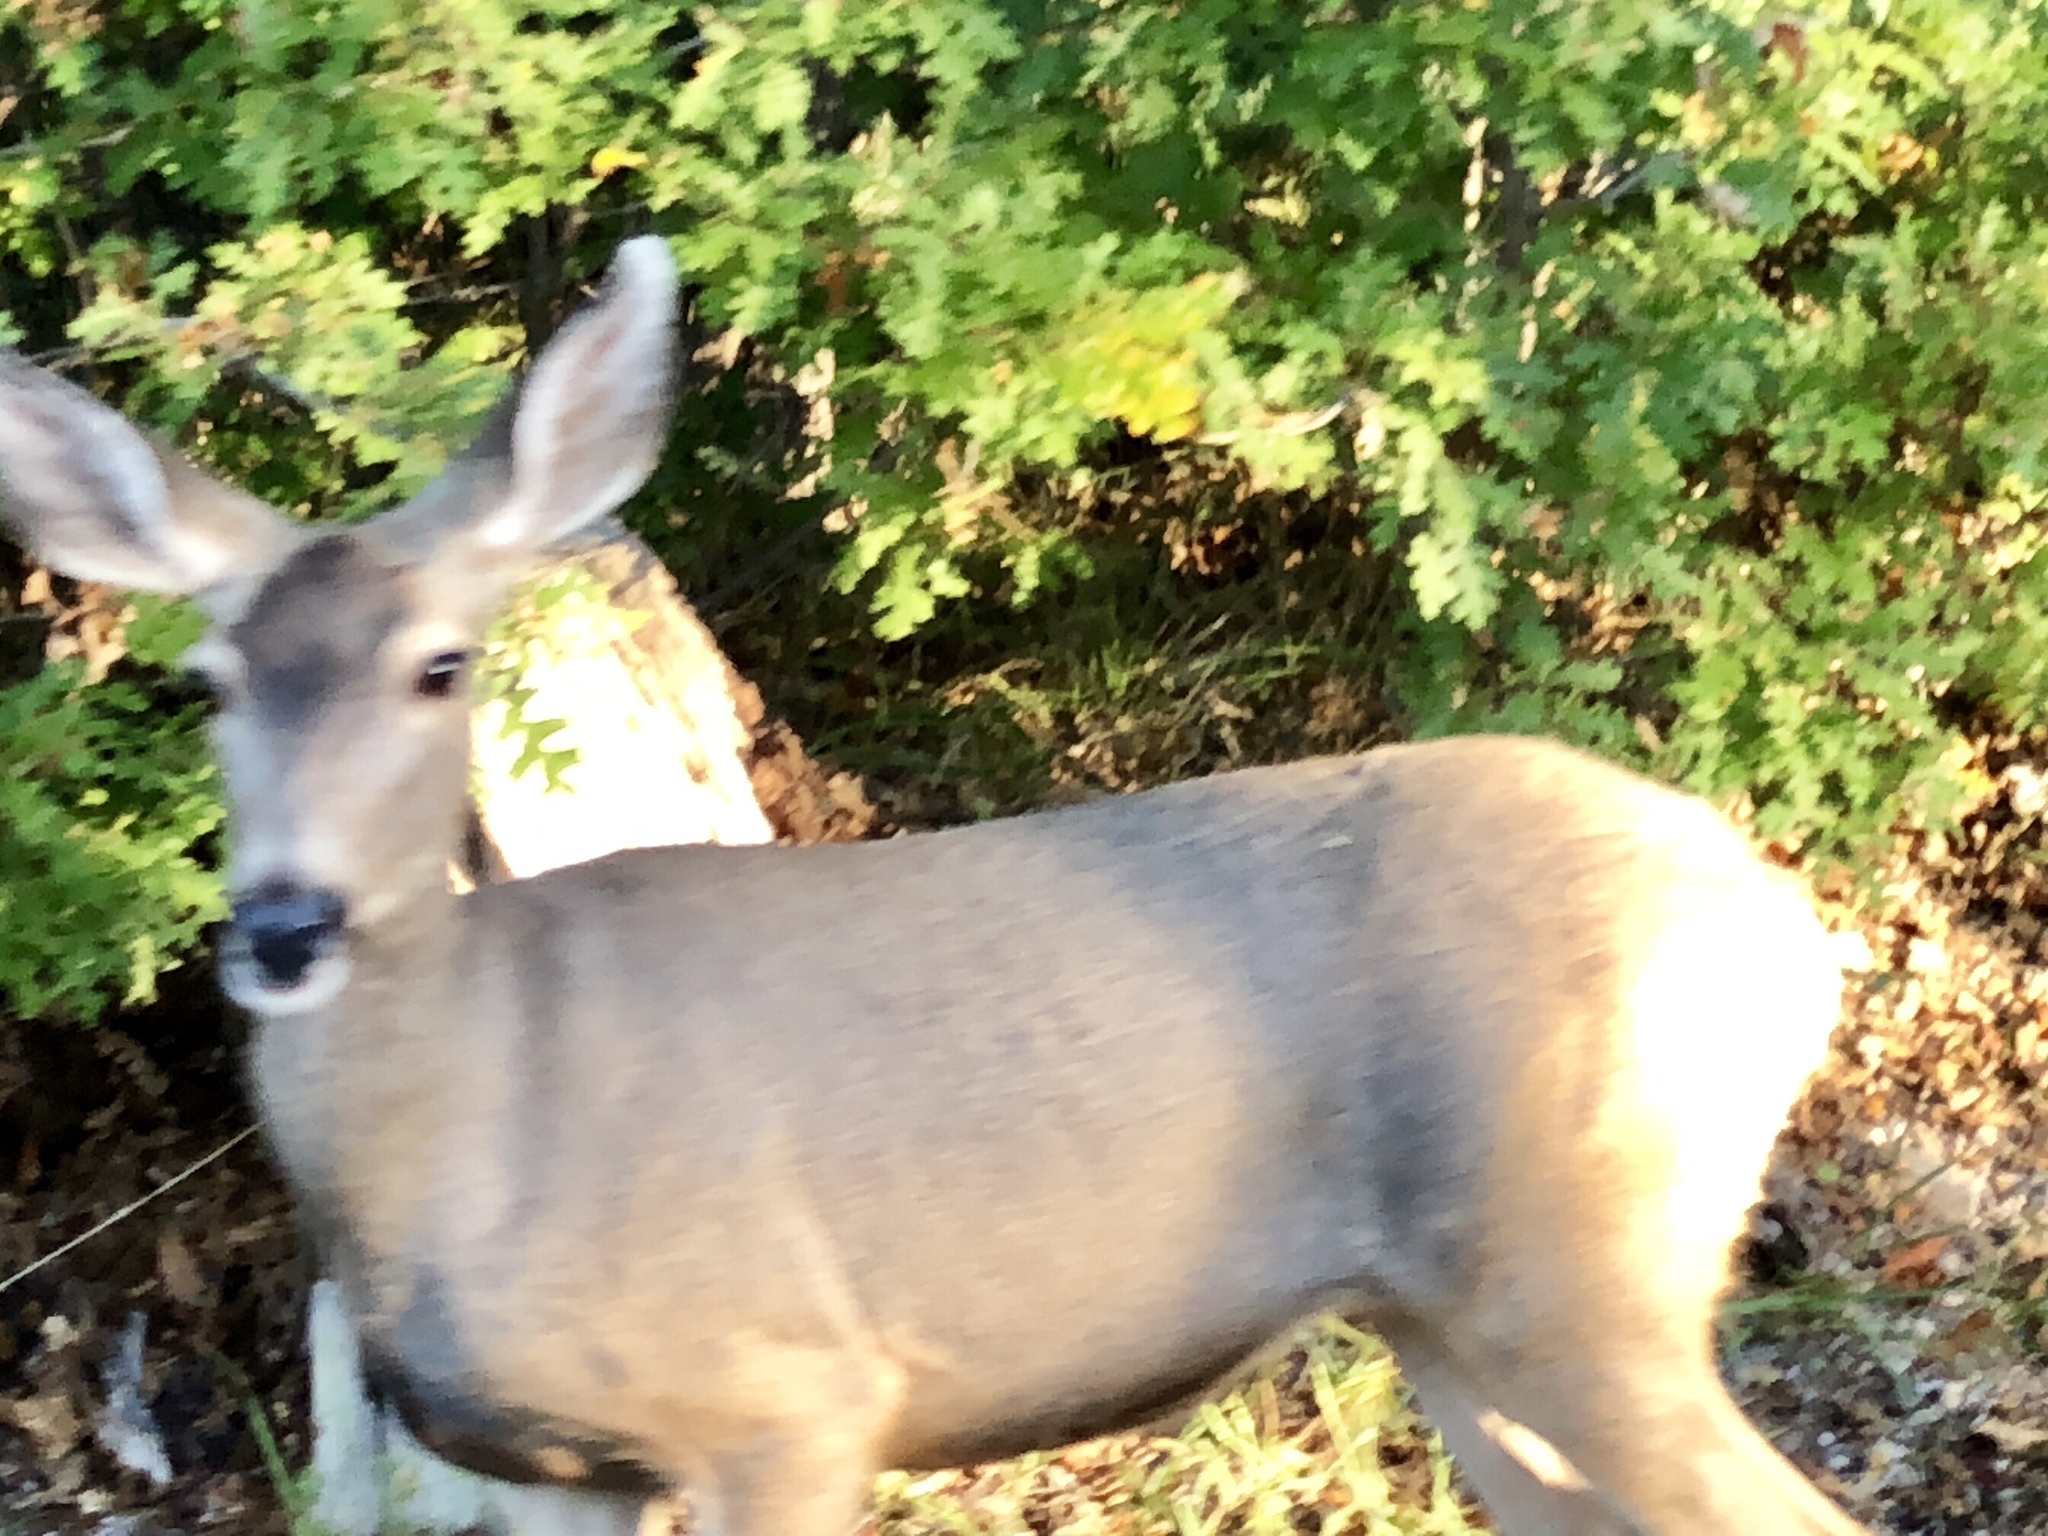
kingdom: Animalia
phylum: Chordata
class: Mammalia
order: Artiodactyla
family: Cervidae
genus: Odocoileus
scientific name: Odocoileus hemionus
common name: Mule deer
